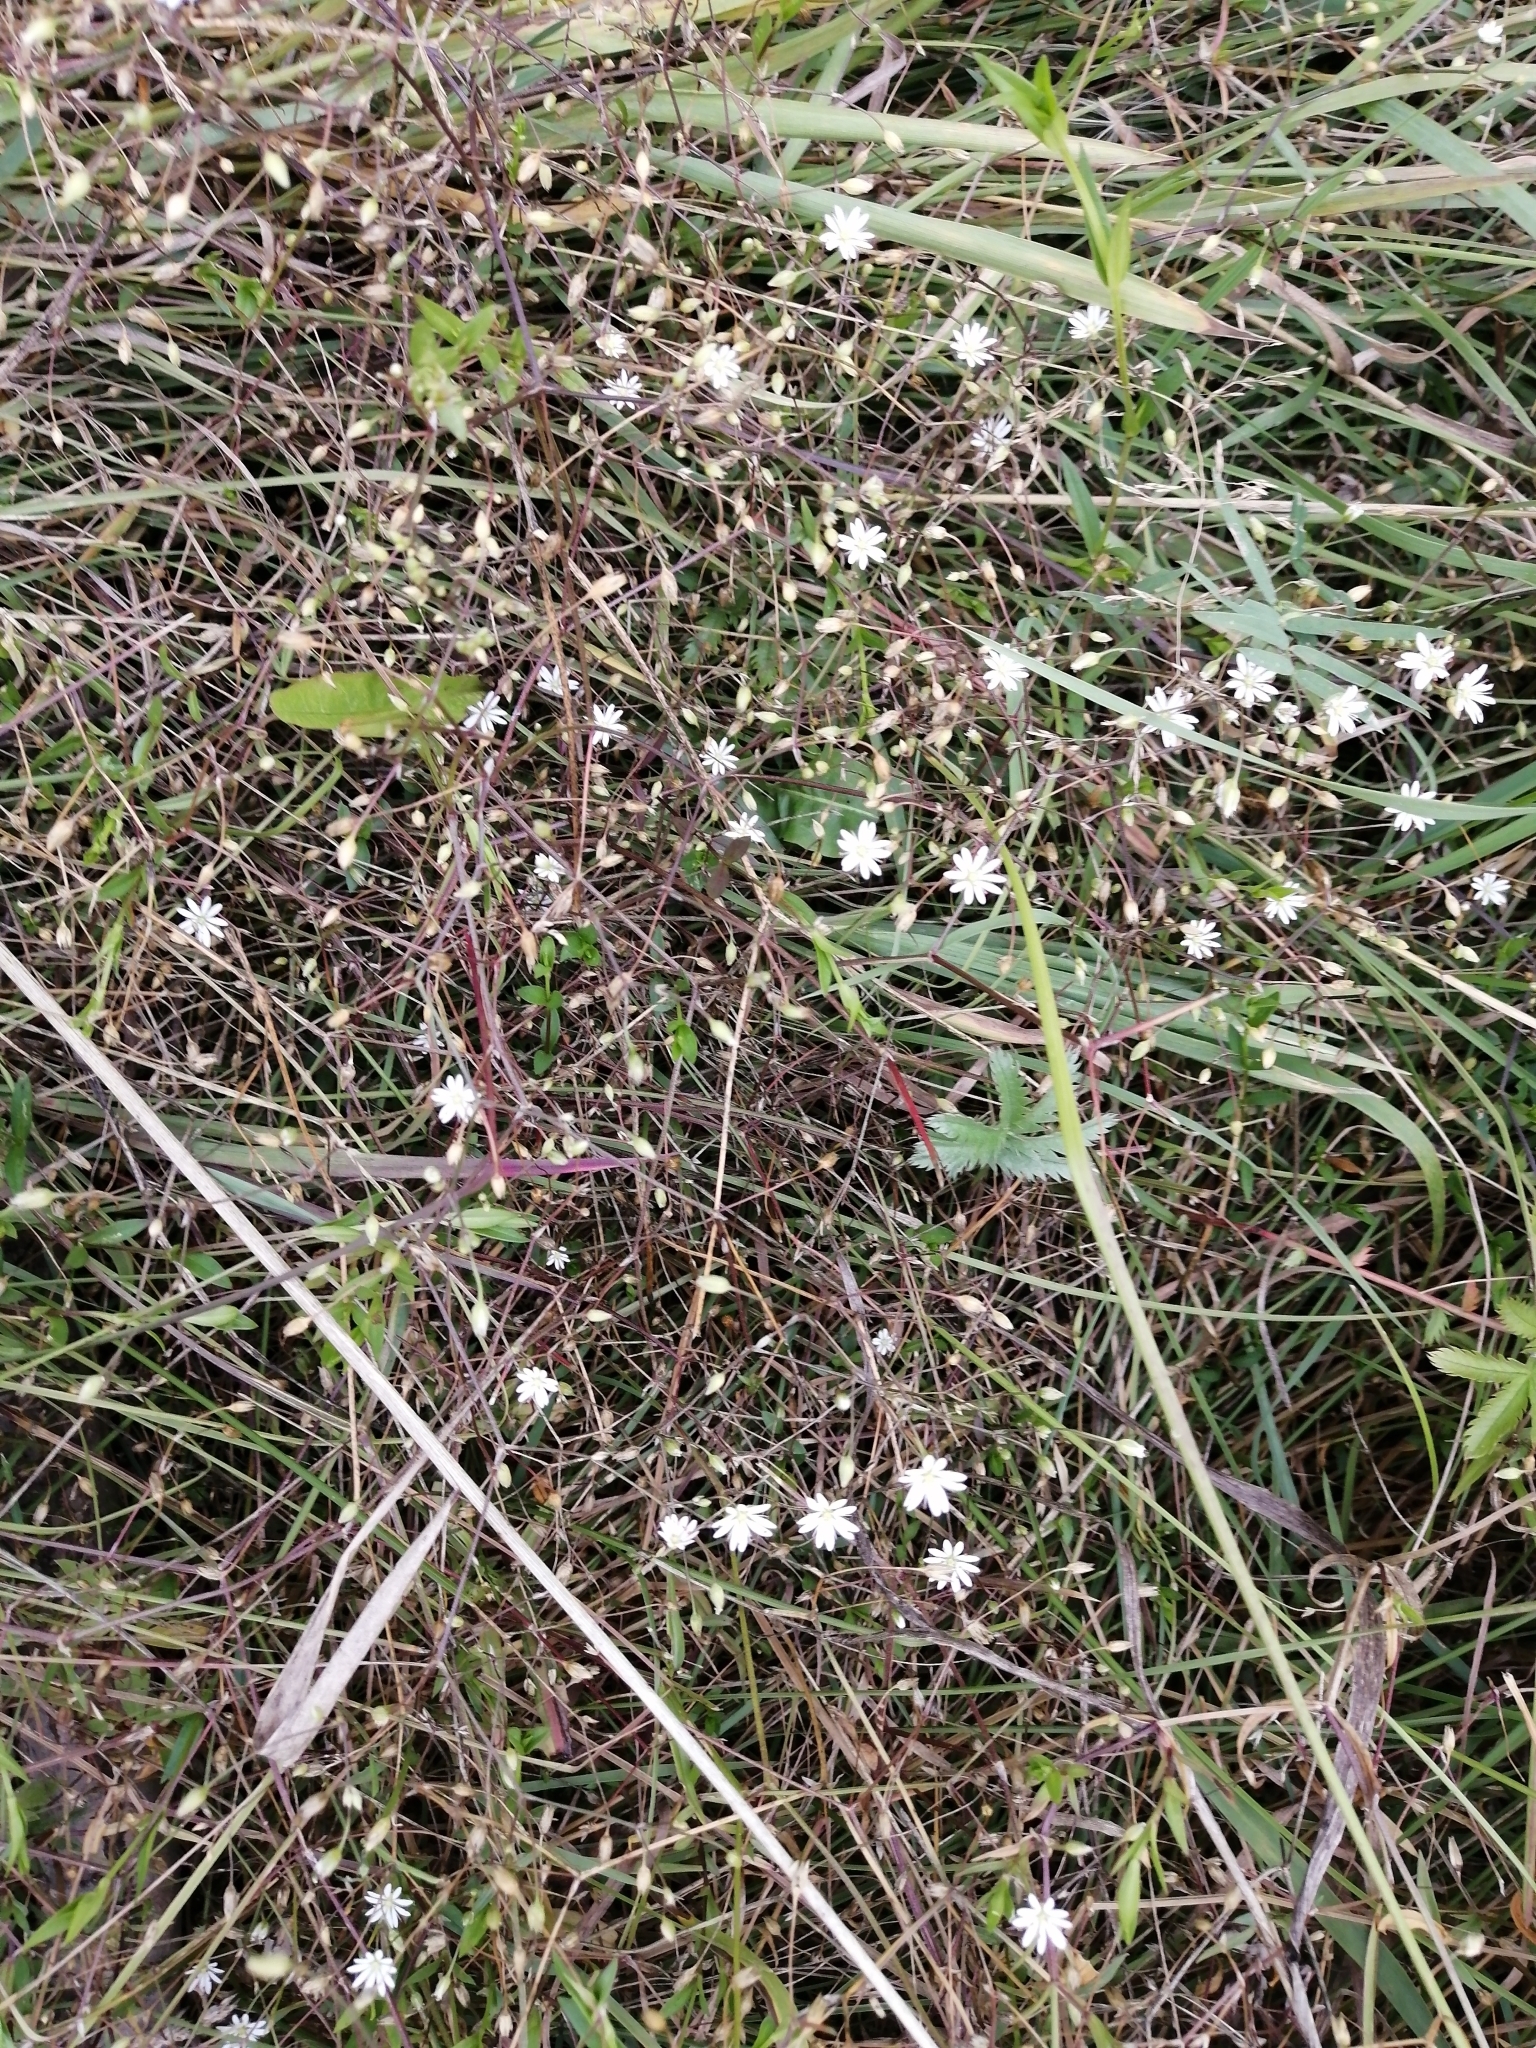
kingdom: Plantae
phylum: Tracheophyta
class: Magnoliopsida
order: Caryophyllales
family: Caryophyllaceae
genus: Stellaria
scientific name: Stellaria graminea
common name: Grass-like starwort
